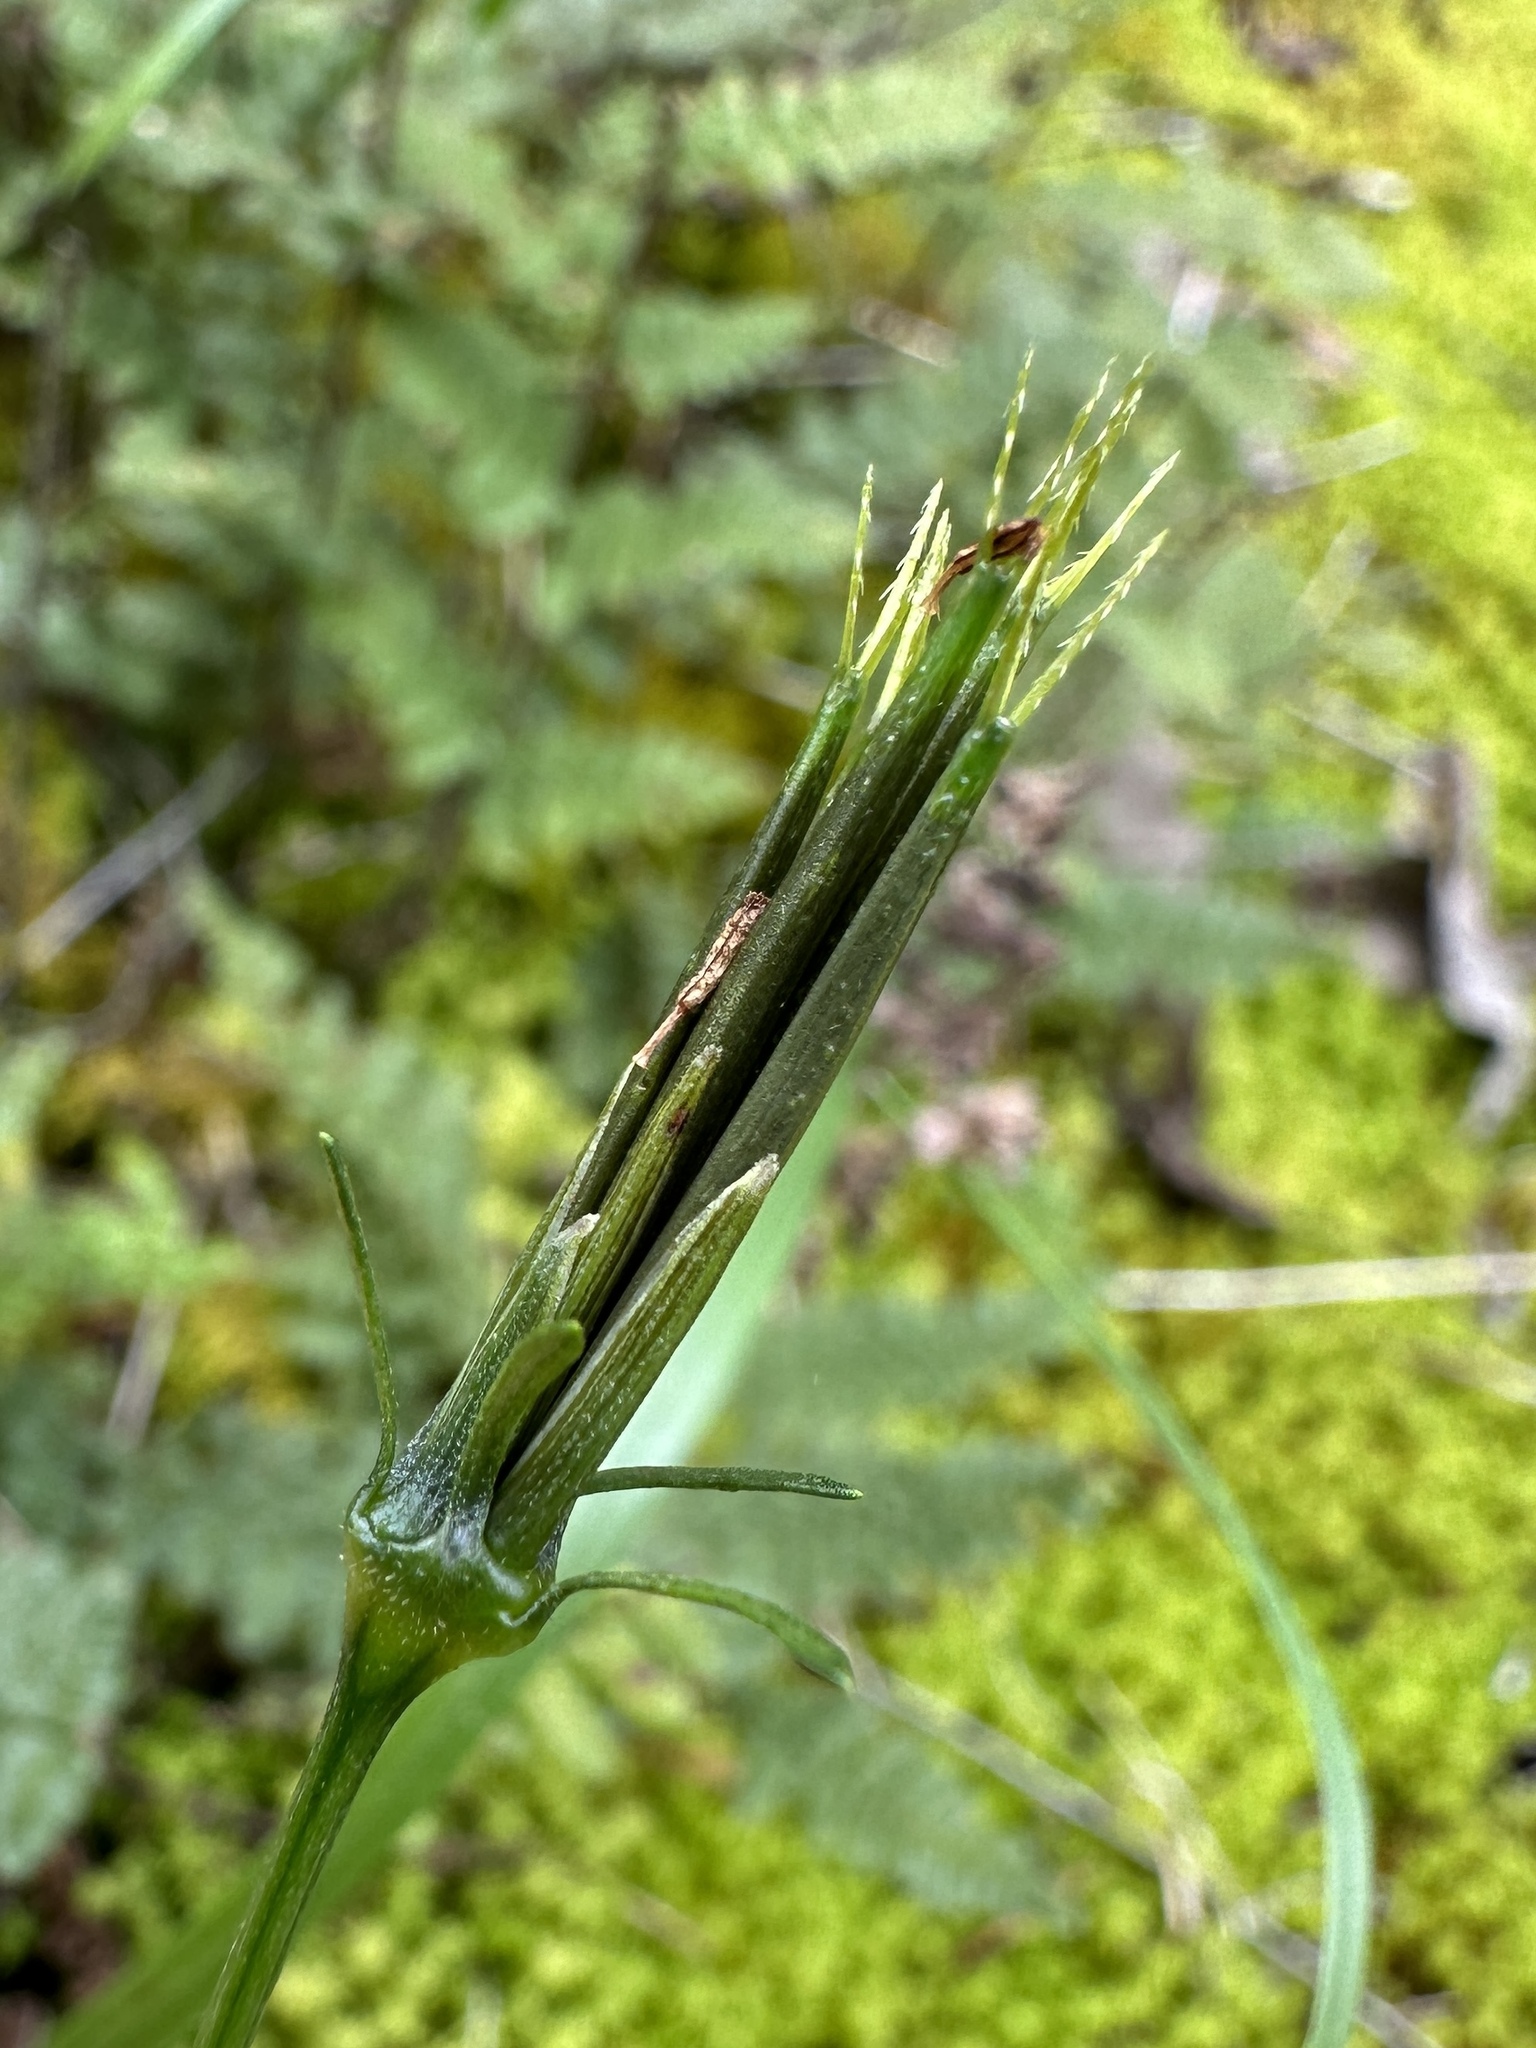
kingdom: Plantae
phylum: Tracheophyta
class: Magnoliopsida
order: Asterales
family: Asteraceae
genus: Bidens
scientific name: Bidens bipinnata
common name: Spanish-needles
